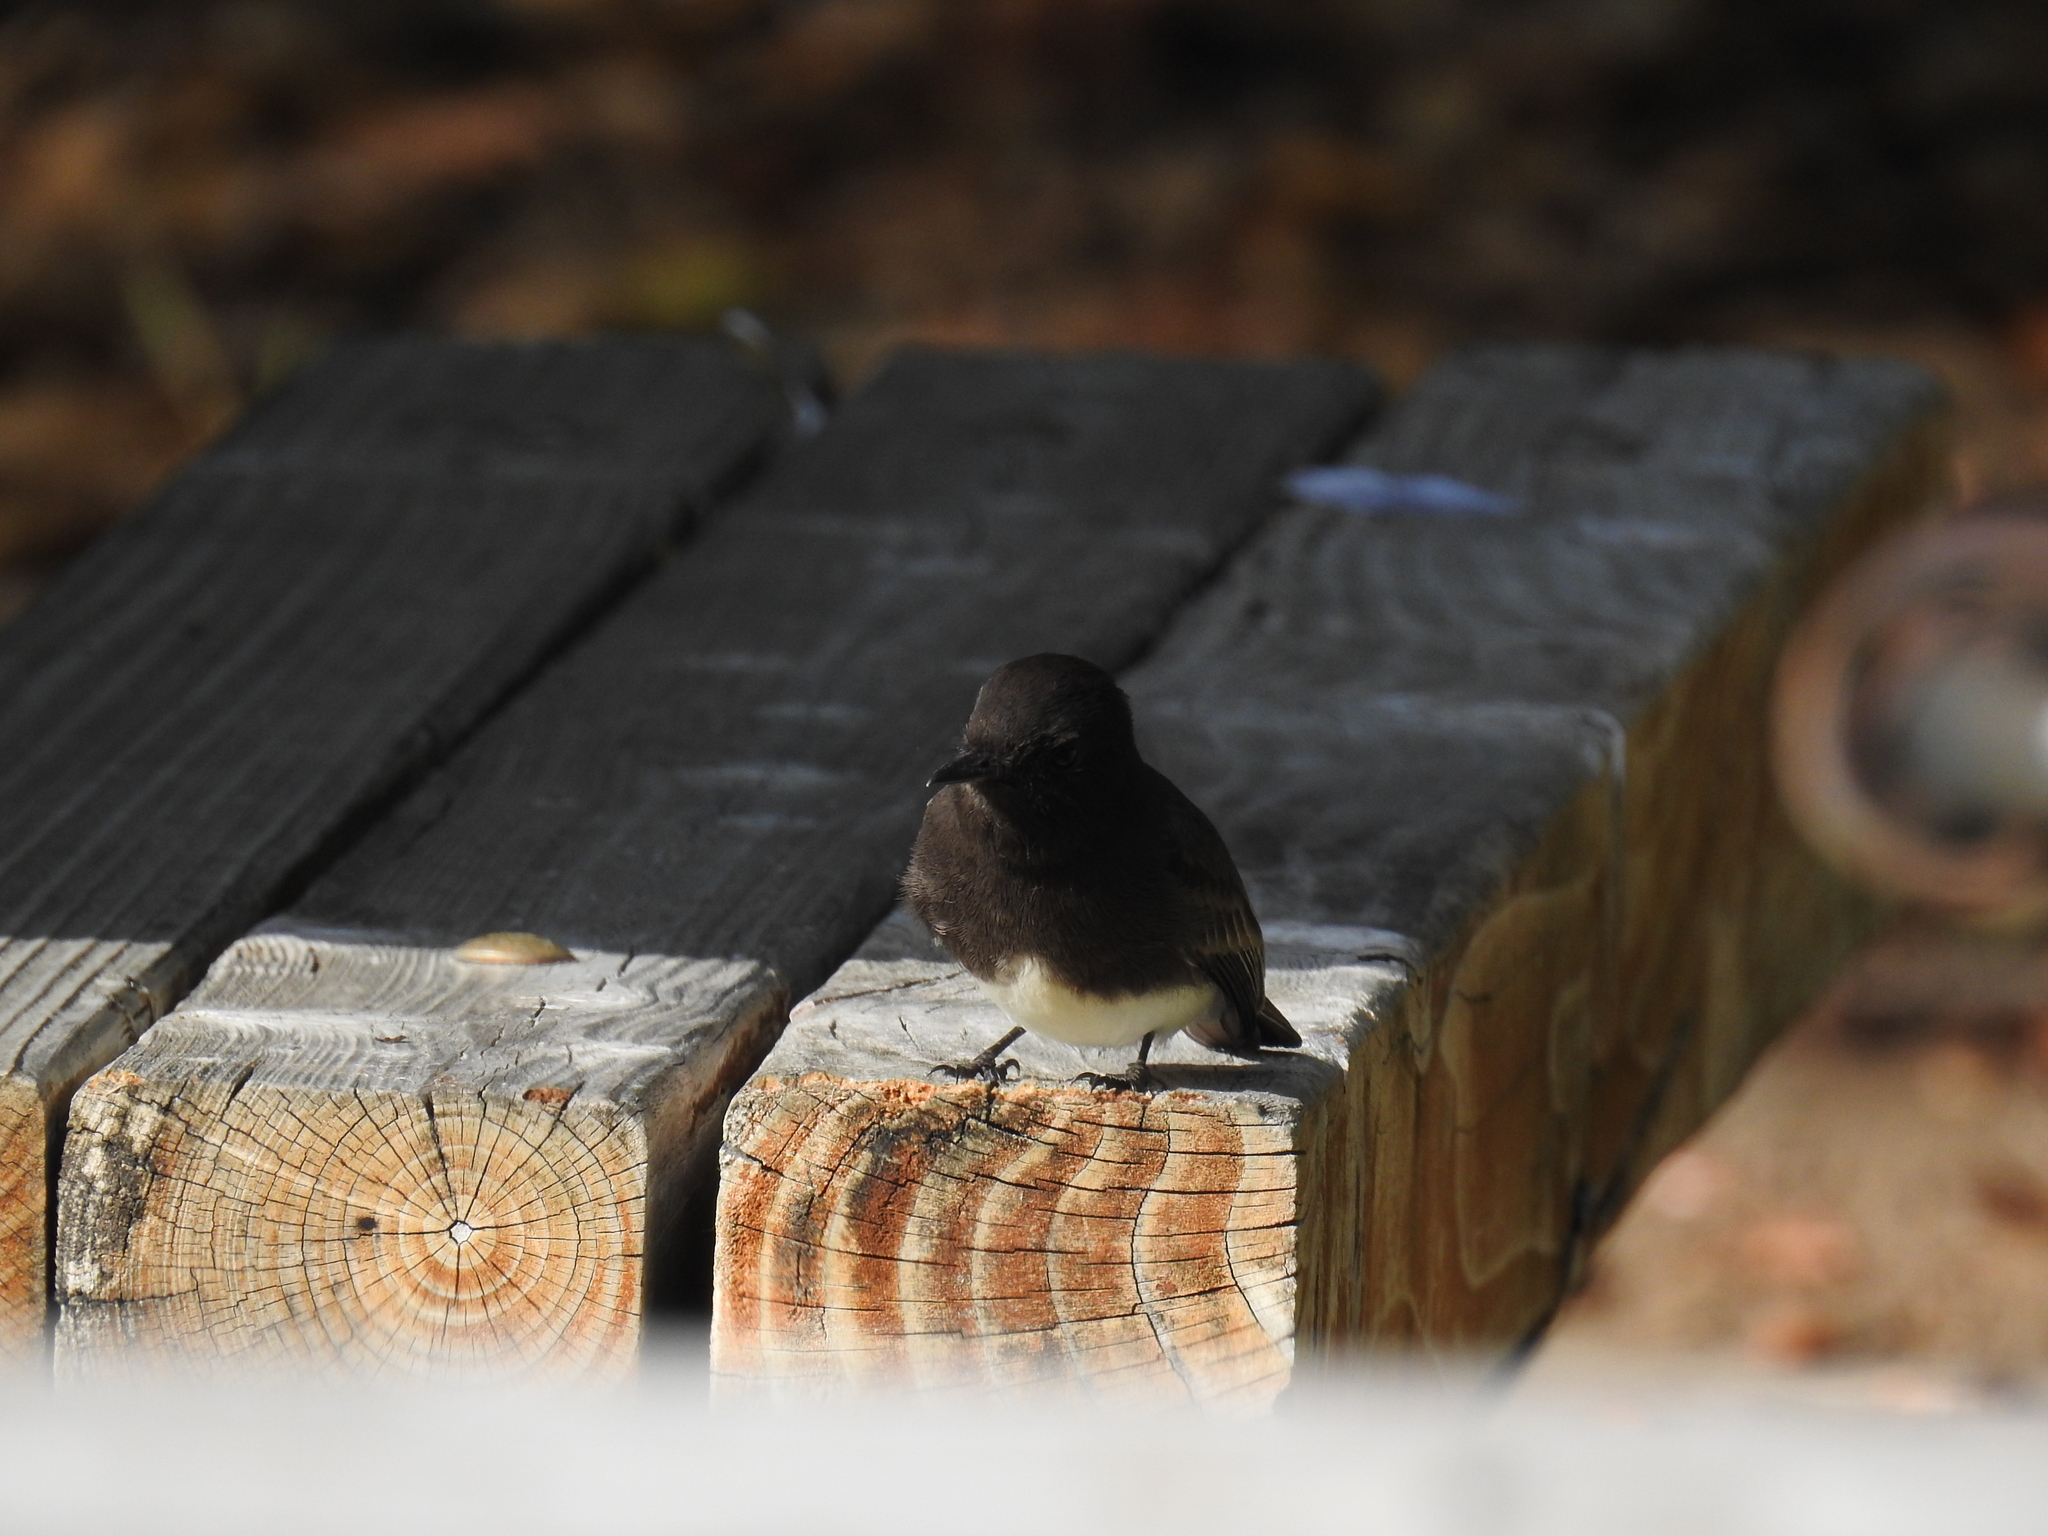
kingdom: Animalia
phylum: Chordata
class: Aves
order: Passeriformes
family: Tyrannidae
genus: Sayornis
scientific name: Sayornis nigricans
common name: Black phoebe
